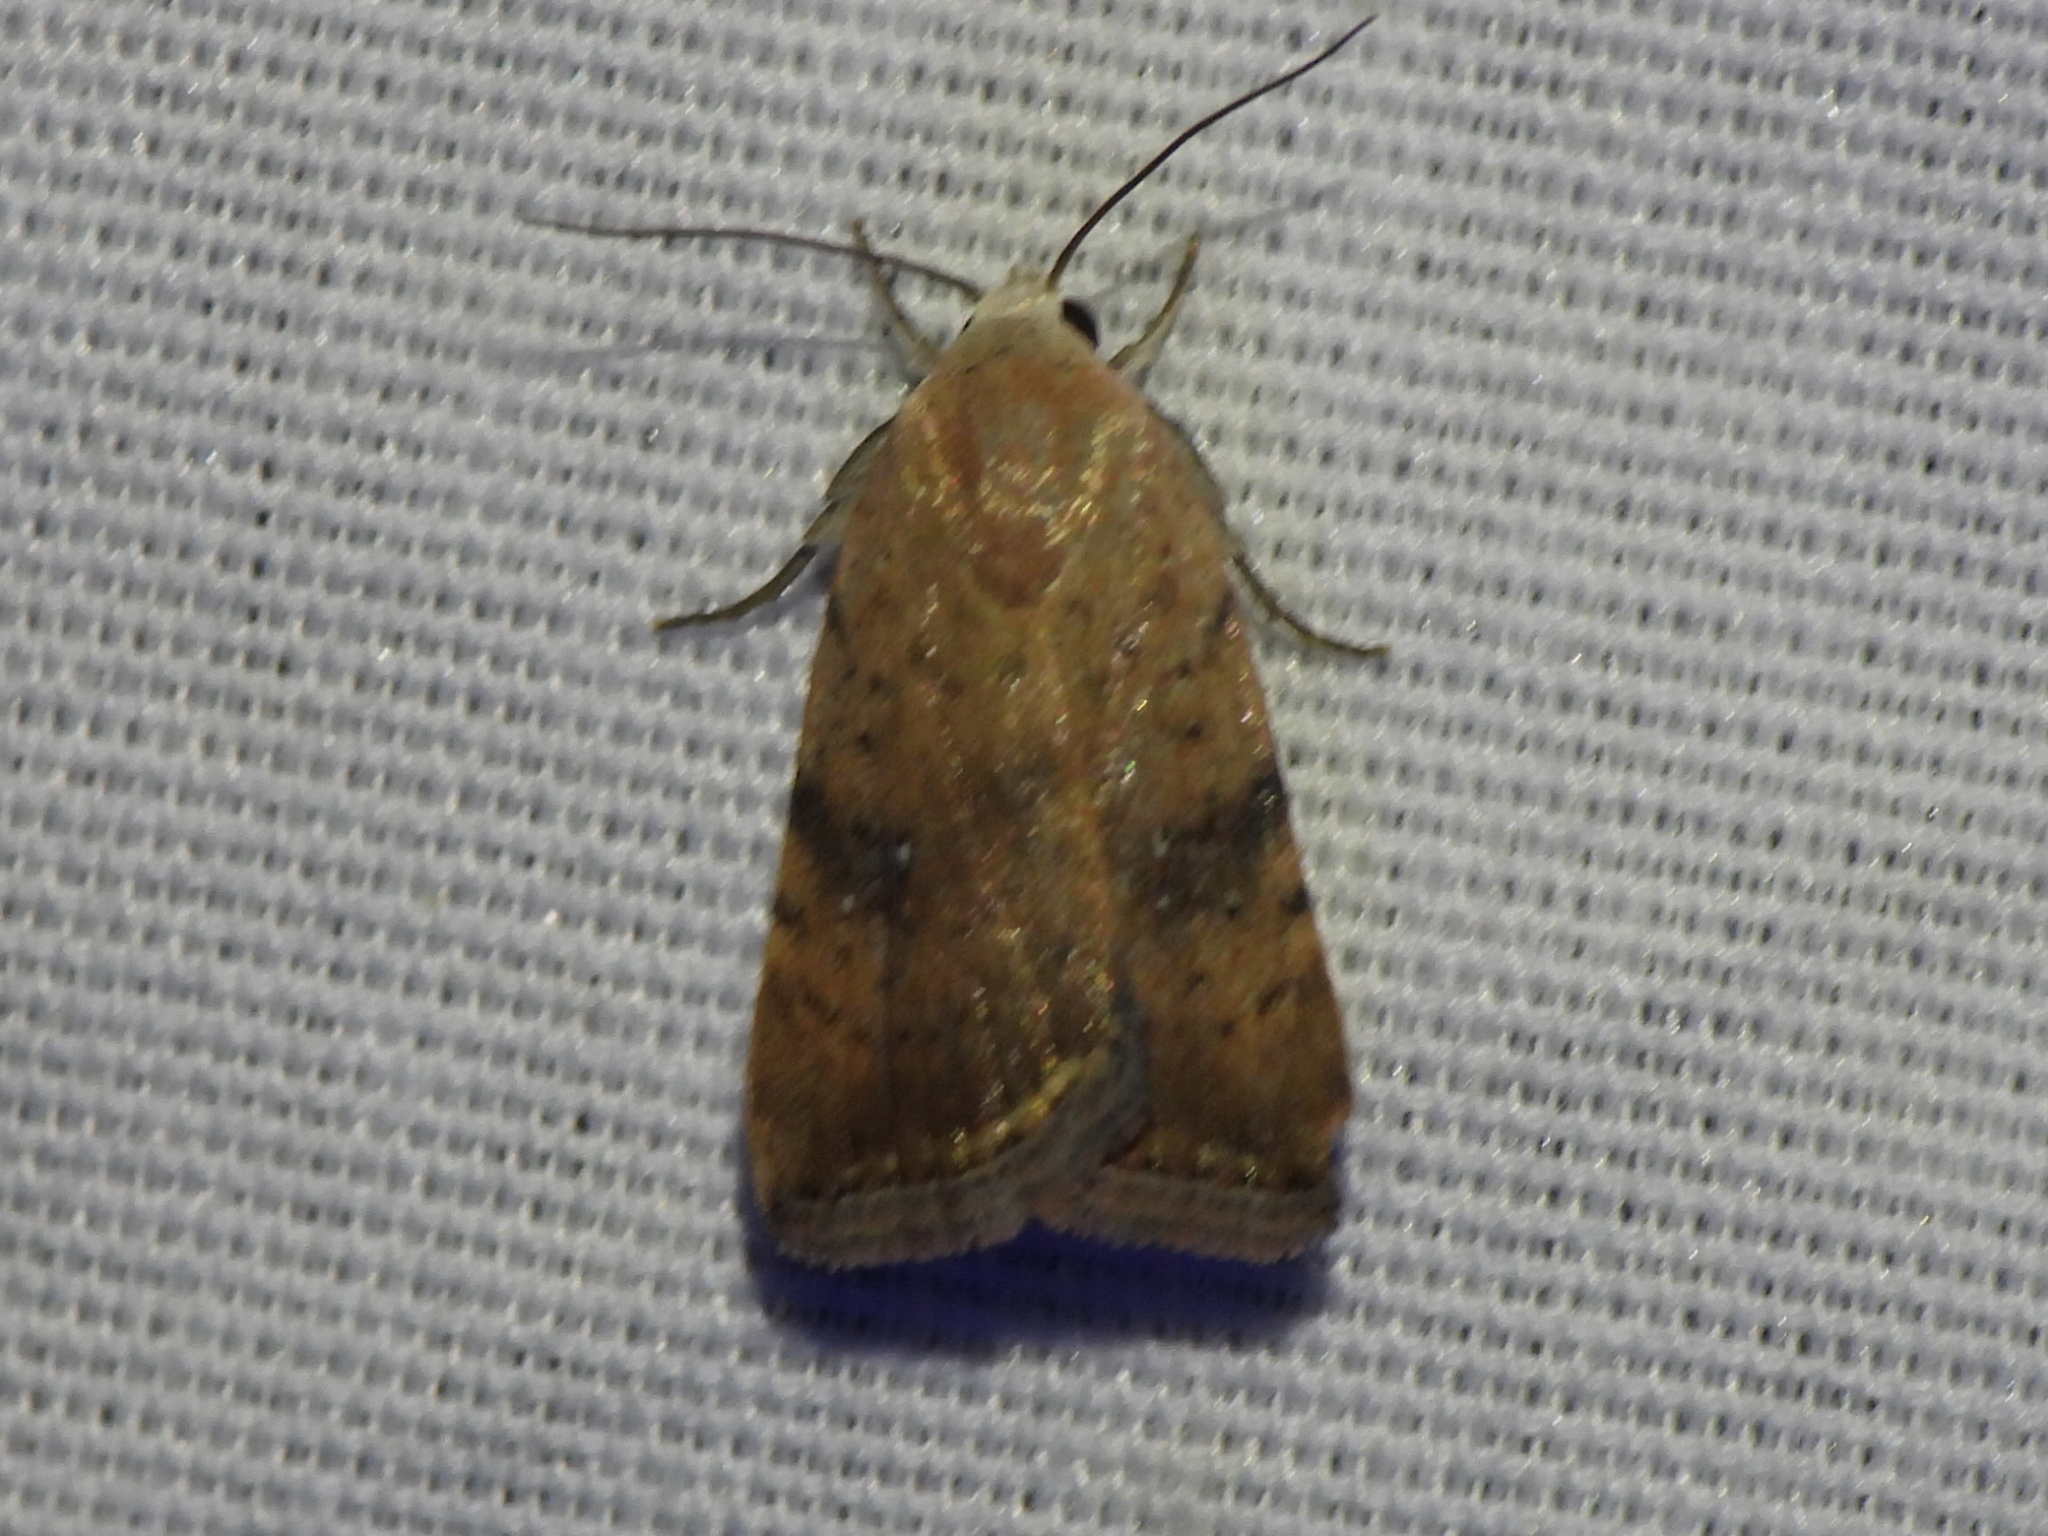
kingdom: Animalia
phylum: Arthropoda
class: Insecta
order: Lepidoptera
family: Noctuidae
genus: Micrathetis
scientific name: Micrathetis triplex
